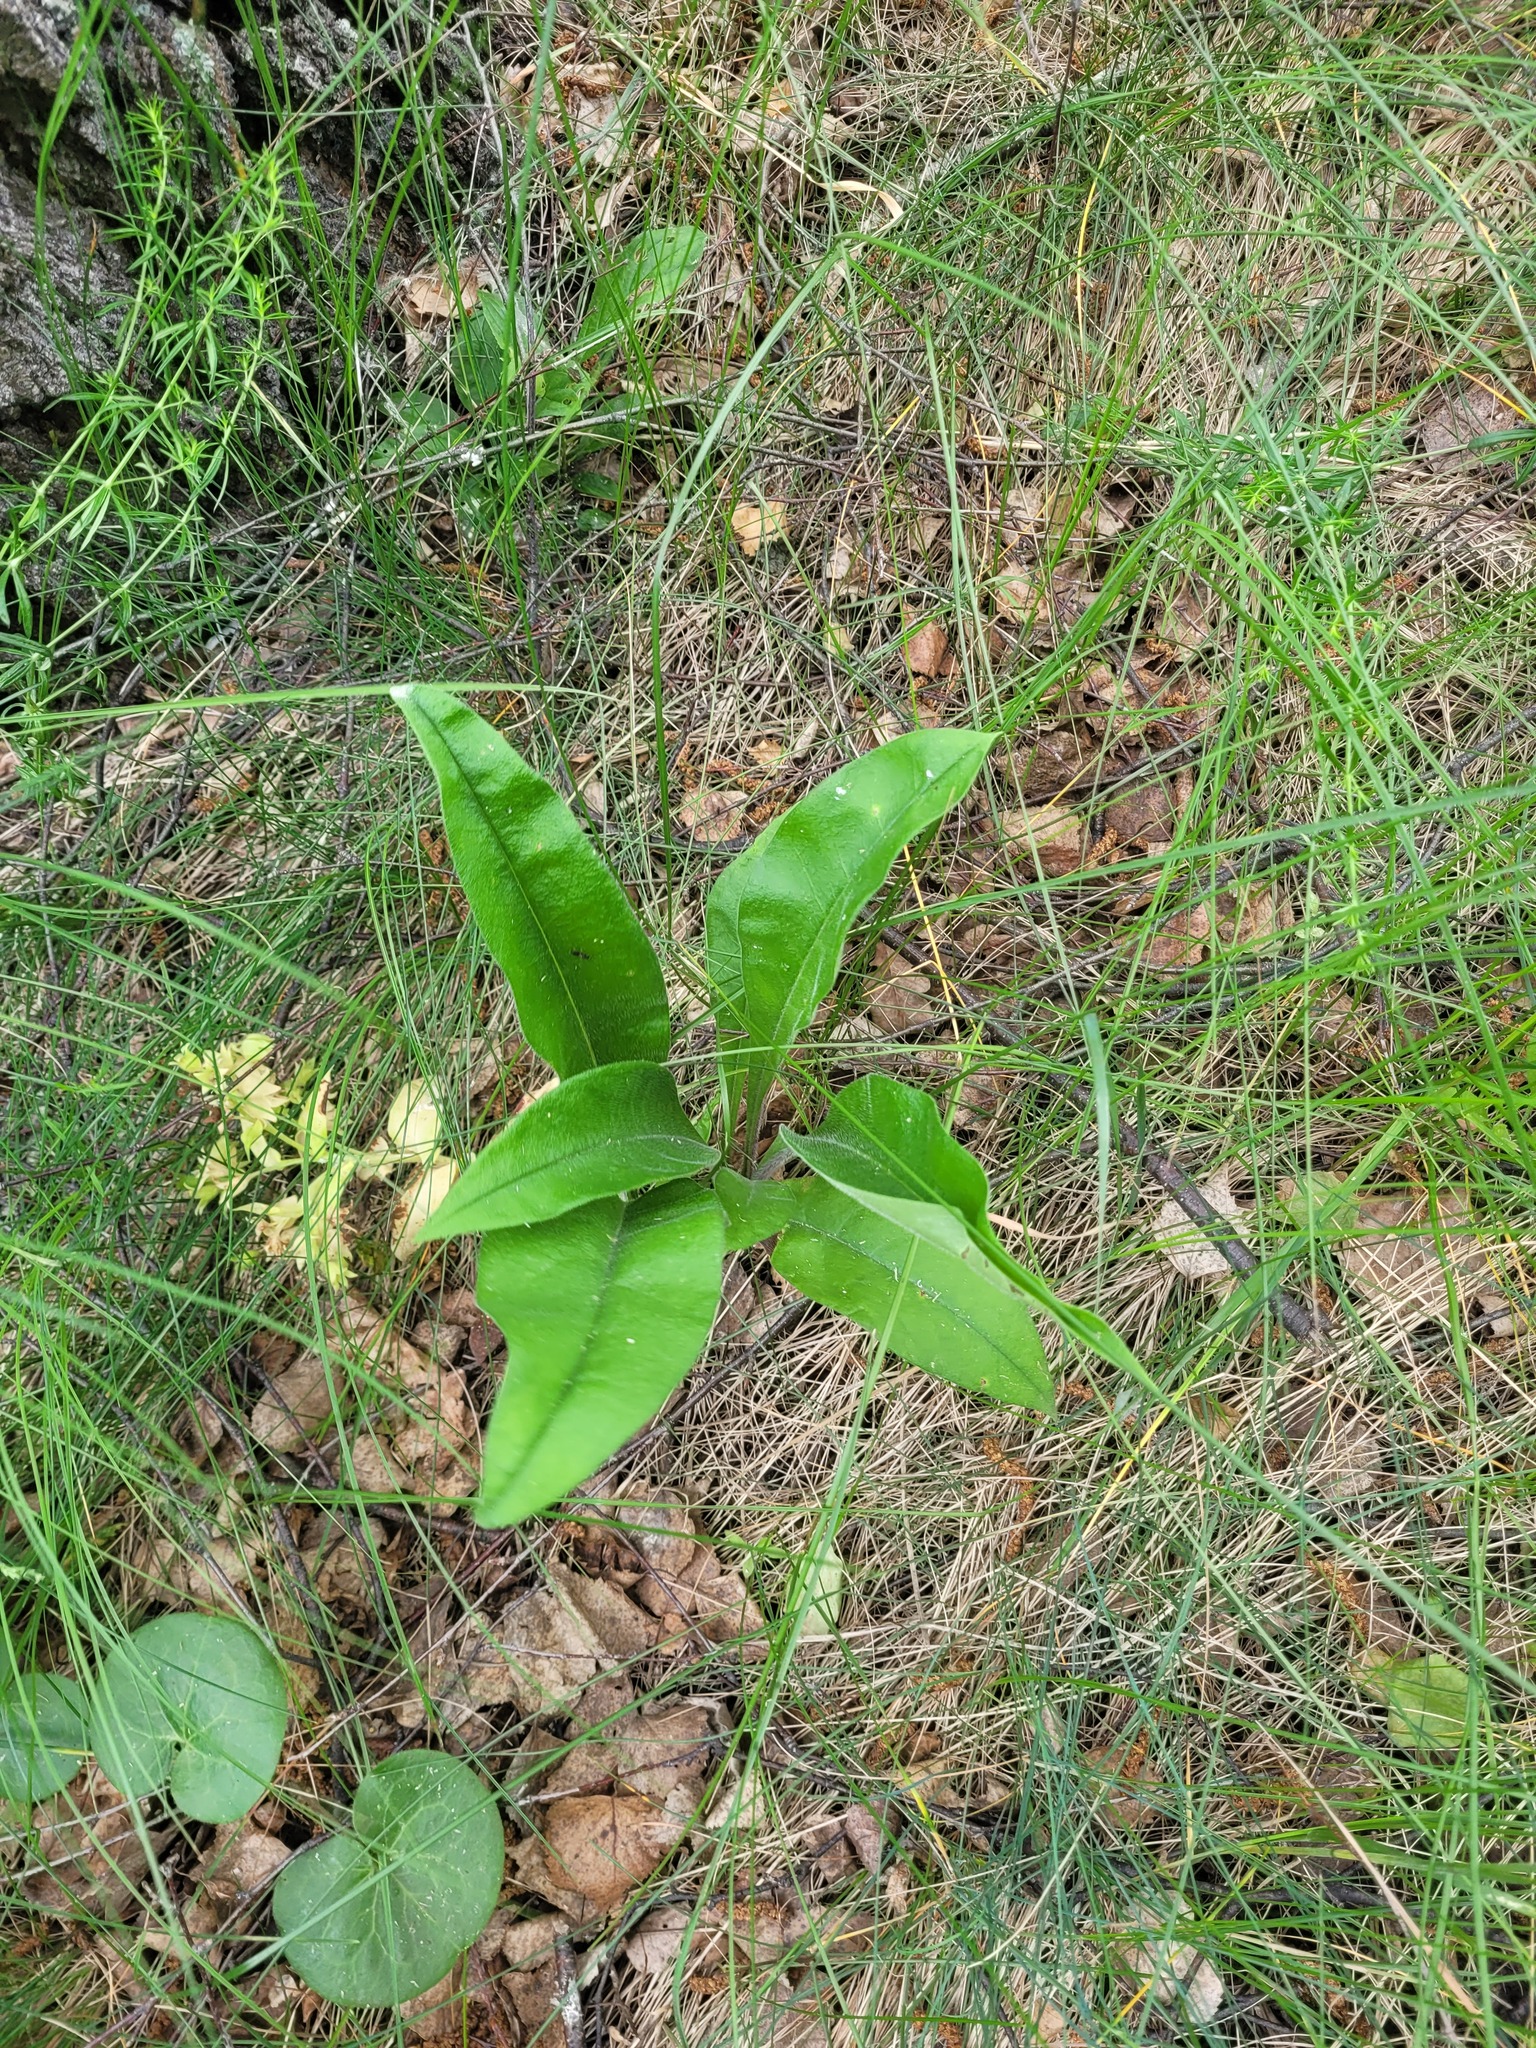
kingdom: Plantae
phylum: Tracheophyta
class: Magnoliopsida
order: Boraginales
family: Boraginaceae
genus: Pulmonaria
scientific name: Pulmonaria notha
